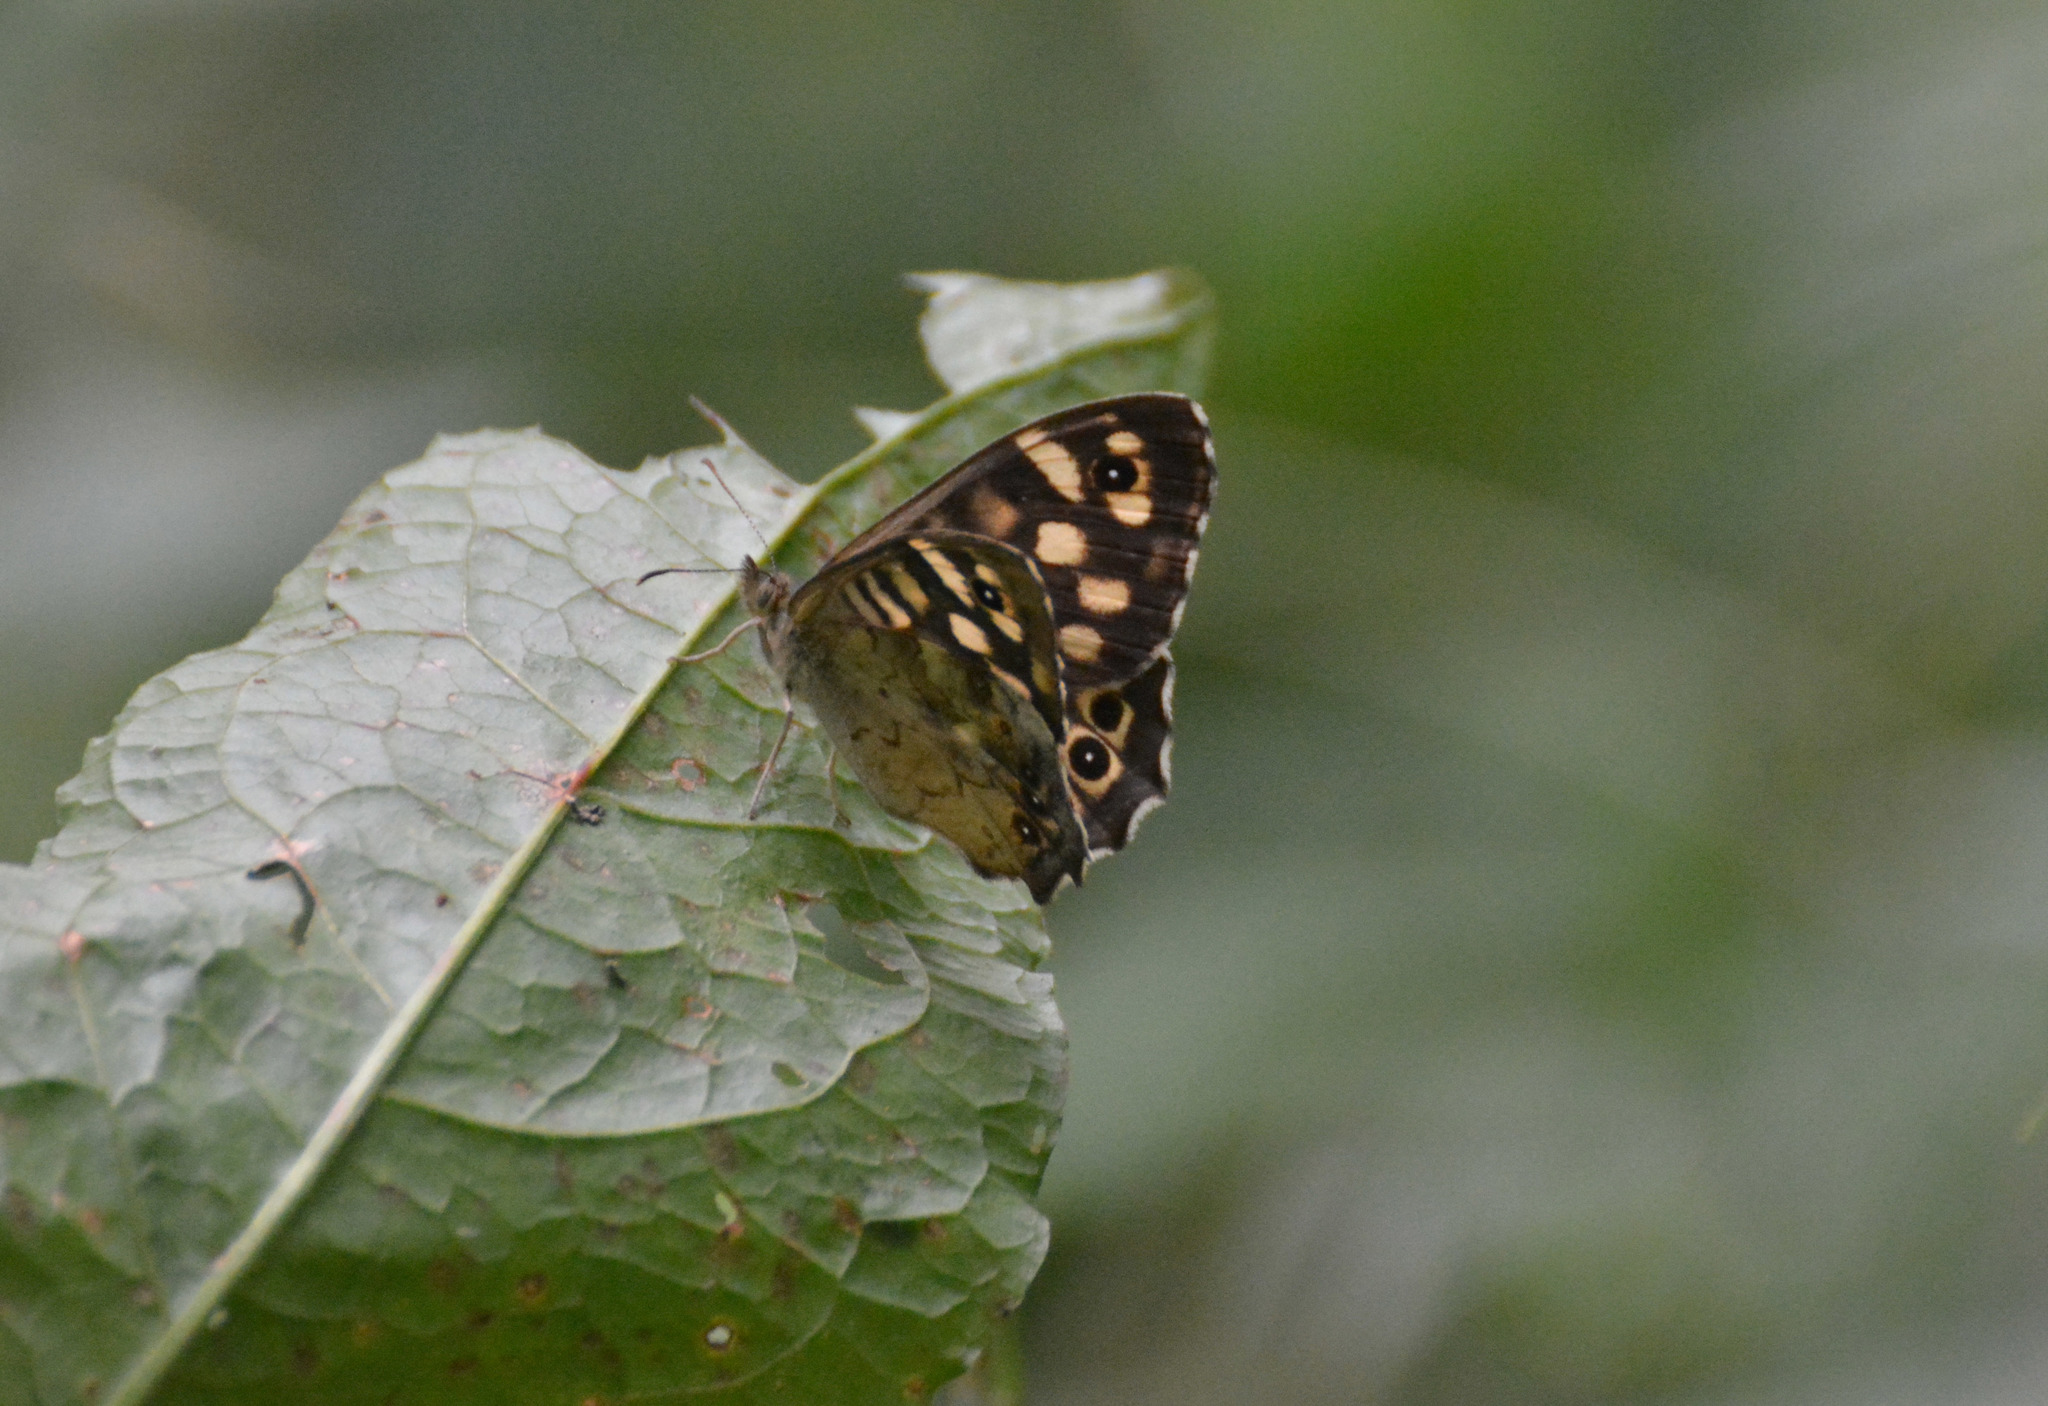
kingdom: Animalia
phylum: Arthropoda
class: Insecta
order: Lepidoptera
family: Nymphalidae
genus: Pararge
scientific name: Pararge aegeria
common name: Speckled wood
